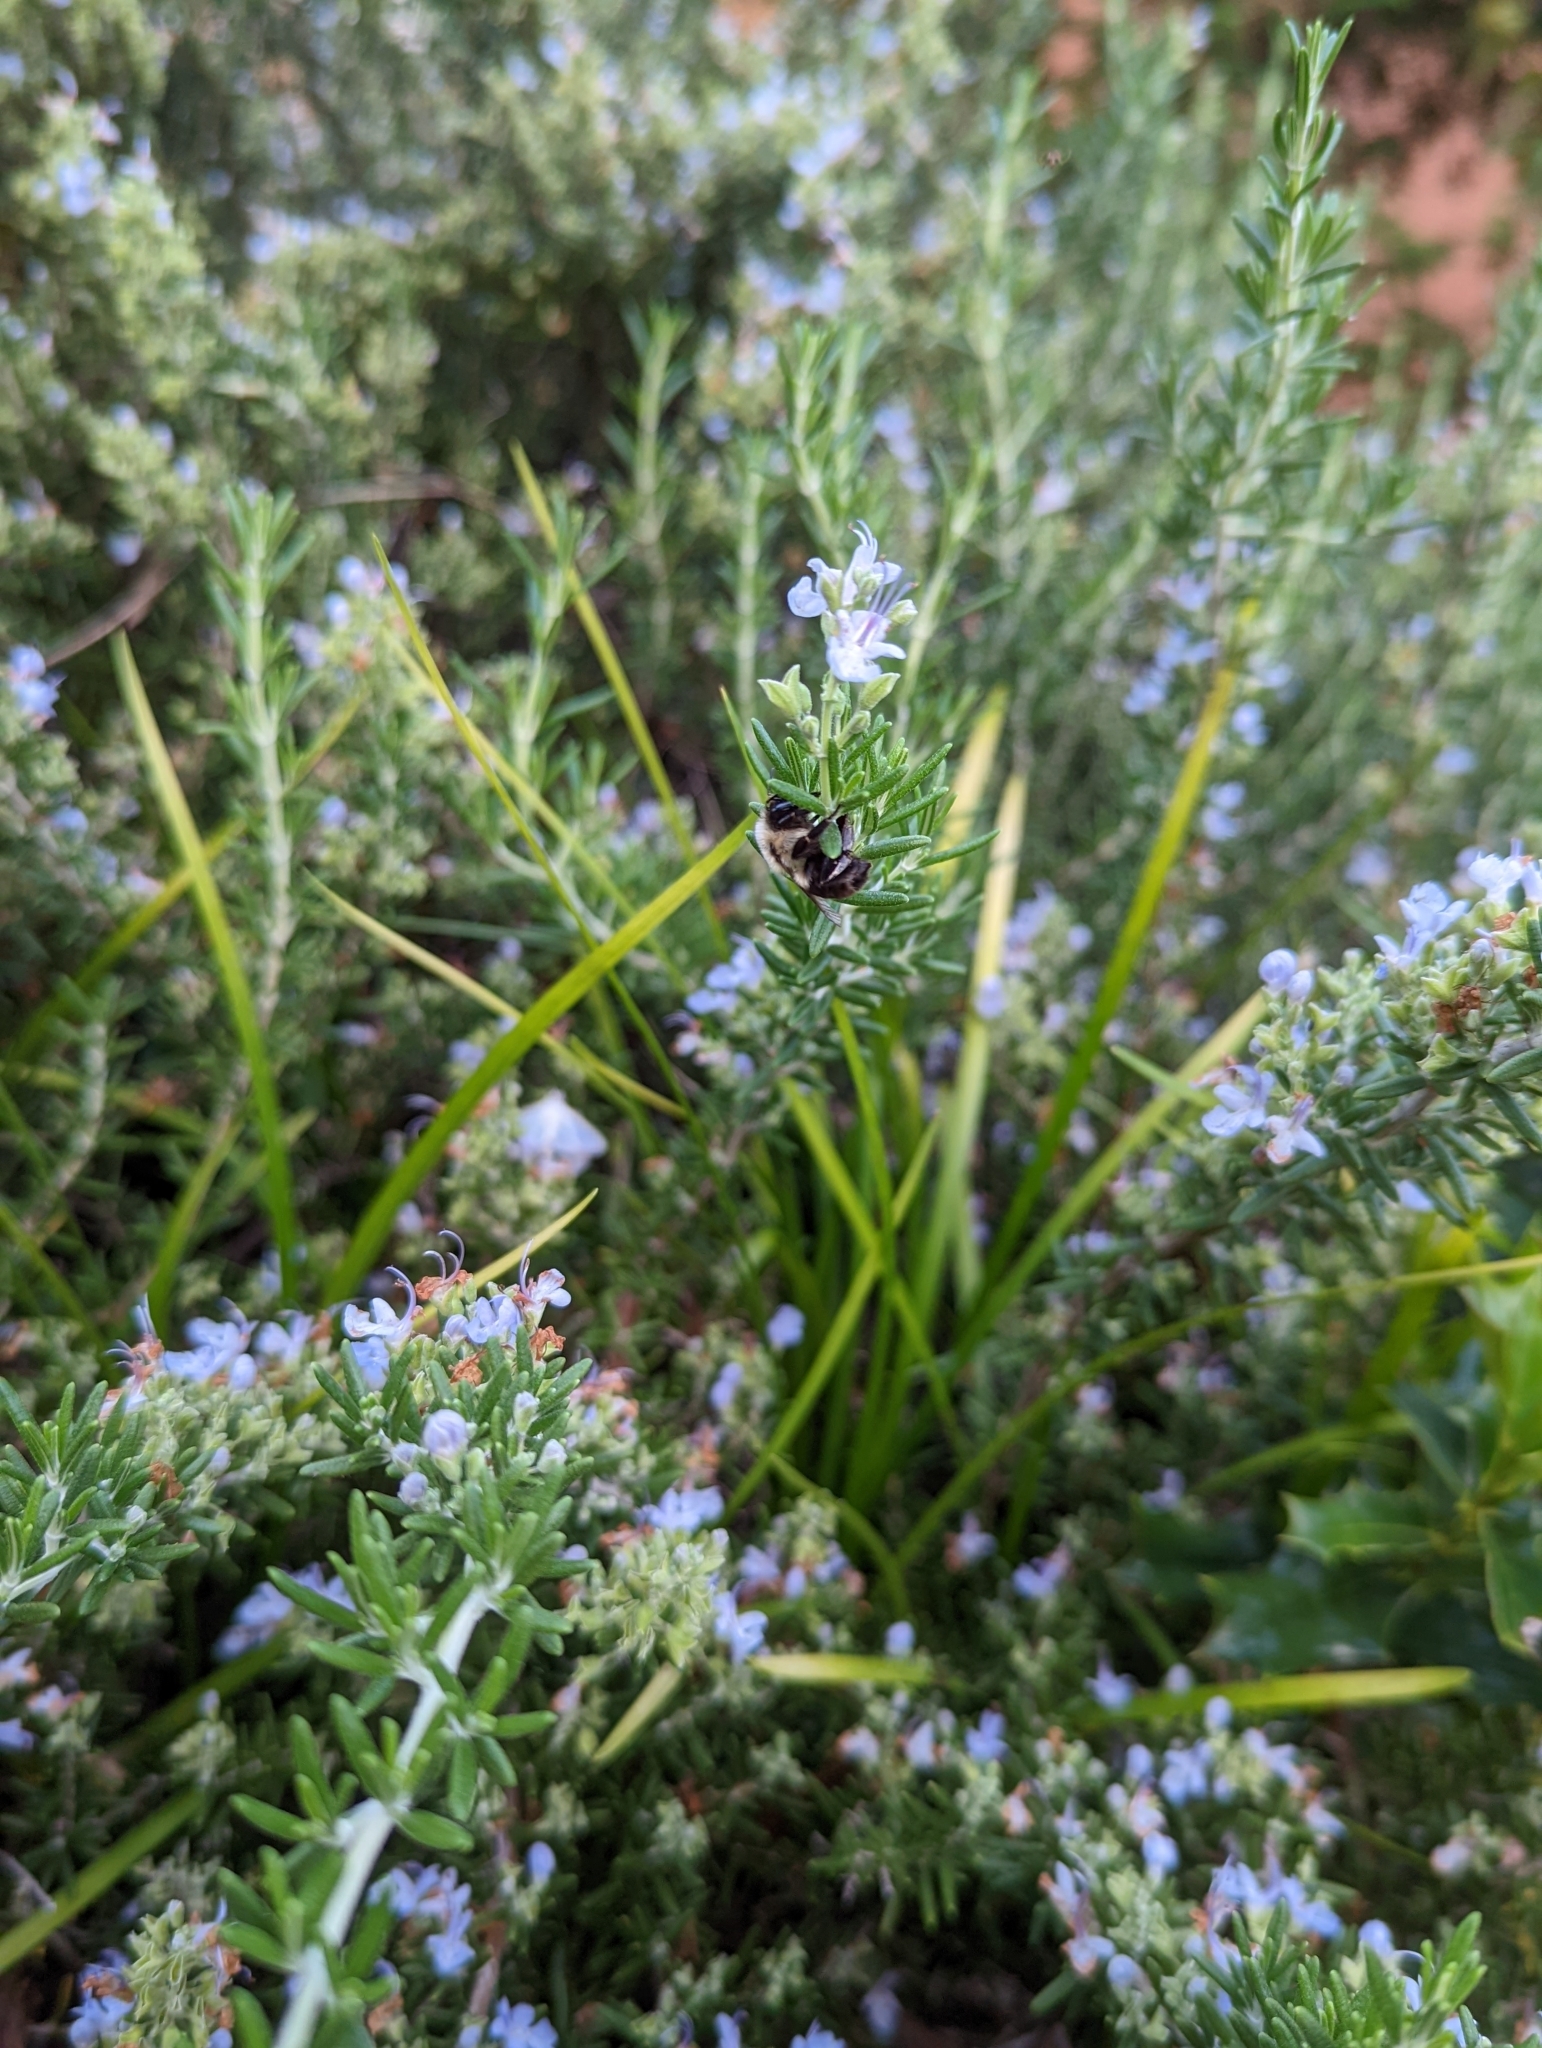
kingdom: Animalia
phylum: Arthropoda
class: Insecta
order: Hymenoptera
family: Apidae
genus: Bombus
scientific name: Bombus impatiens
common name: Common eastern bumble bee
